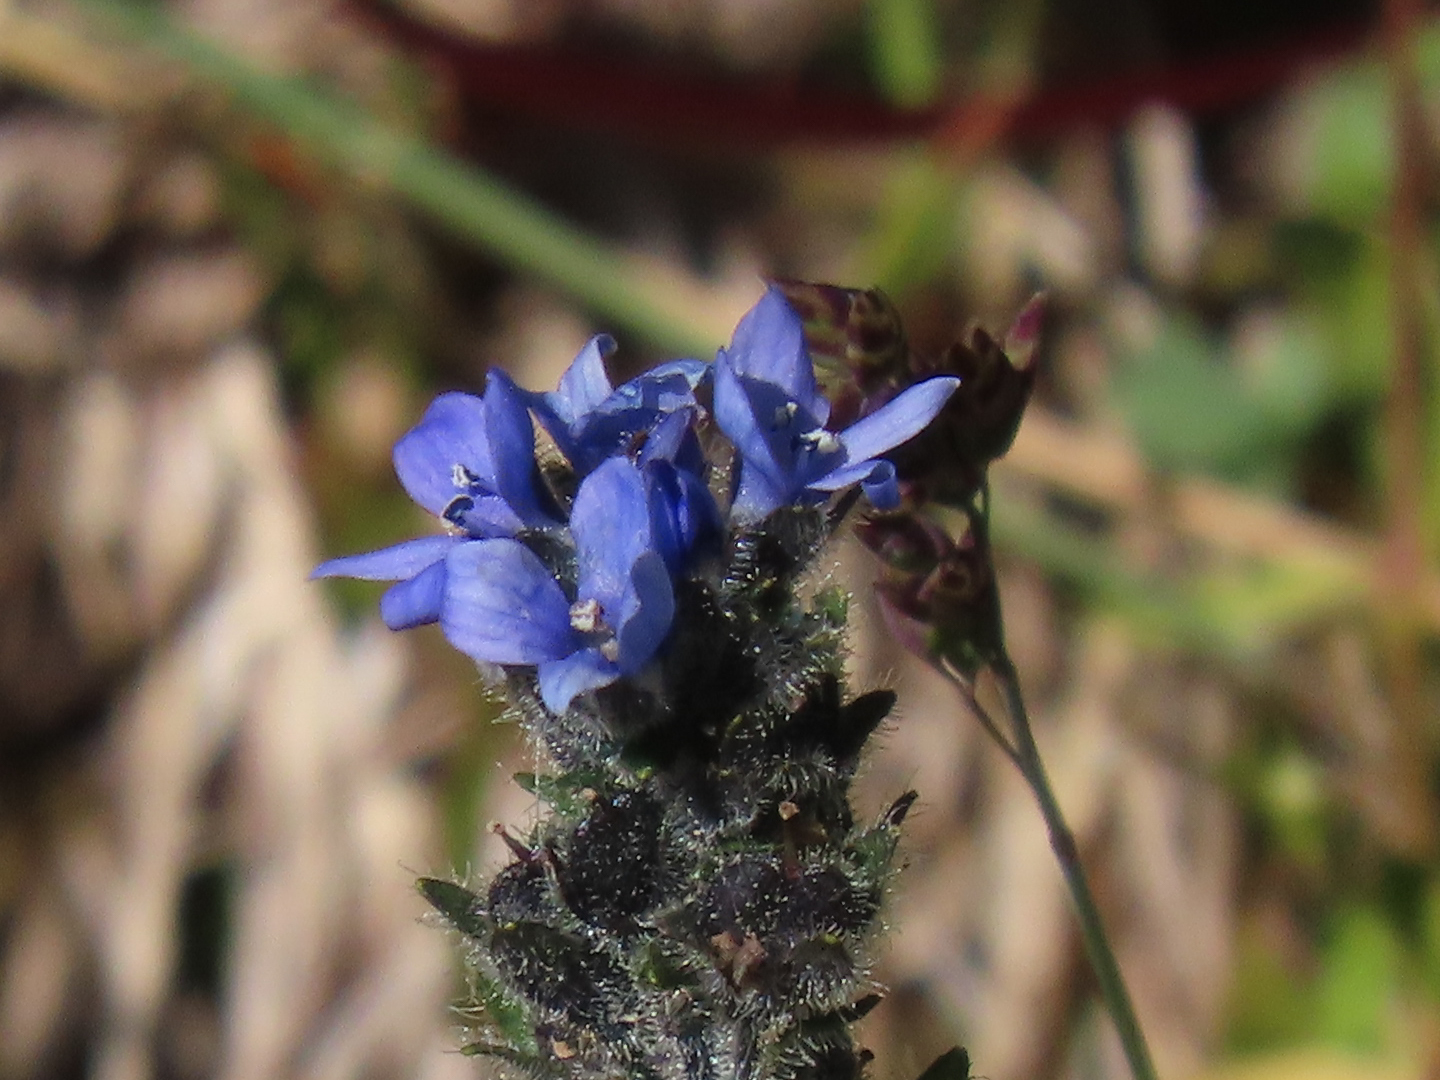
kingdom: Plantae
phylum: Tracheophyta
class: Magnoliopsida
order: Lamiales
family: Plantaginaceae
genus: Veronica
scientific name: Veronica wormskjoldii
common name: American alpine speedwell
